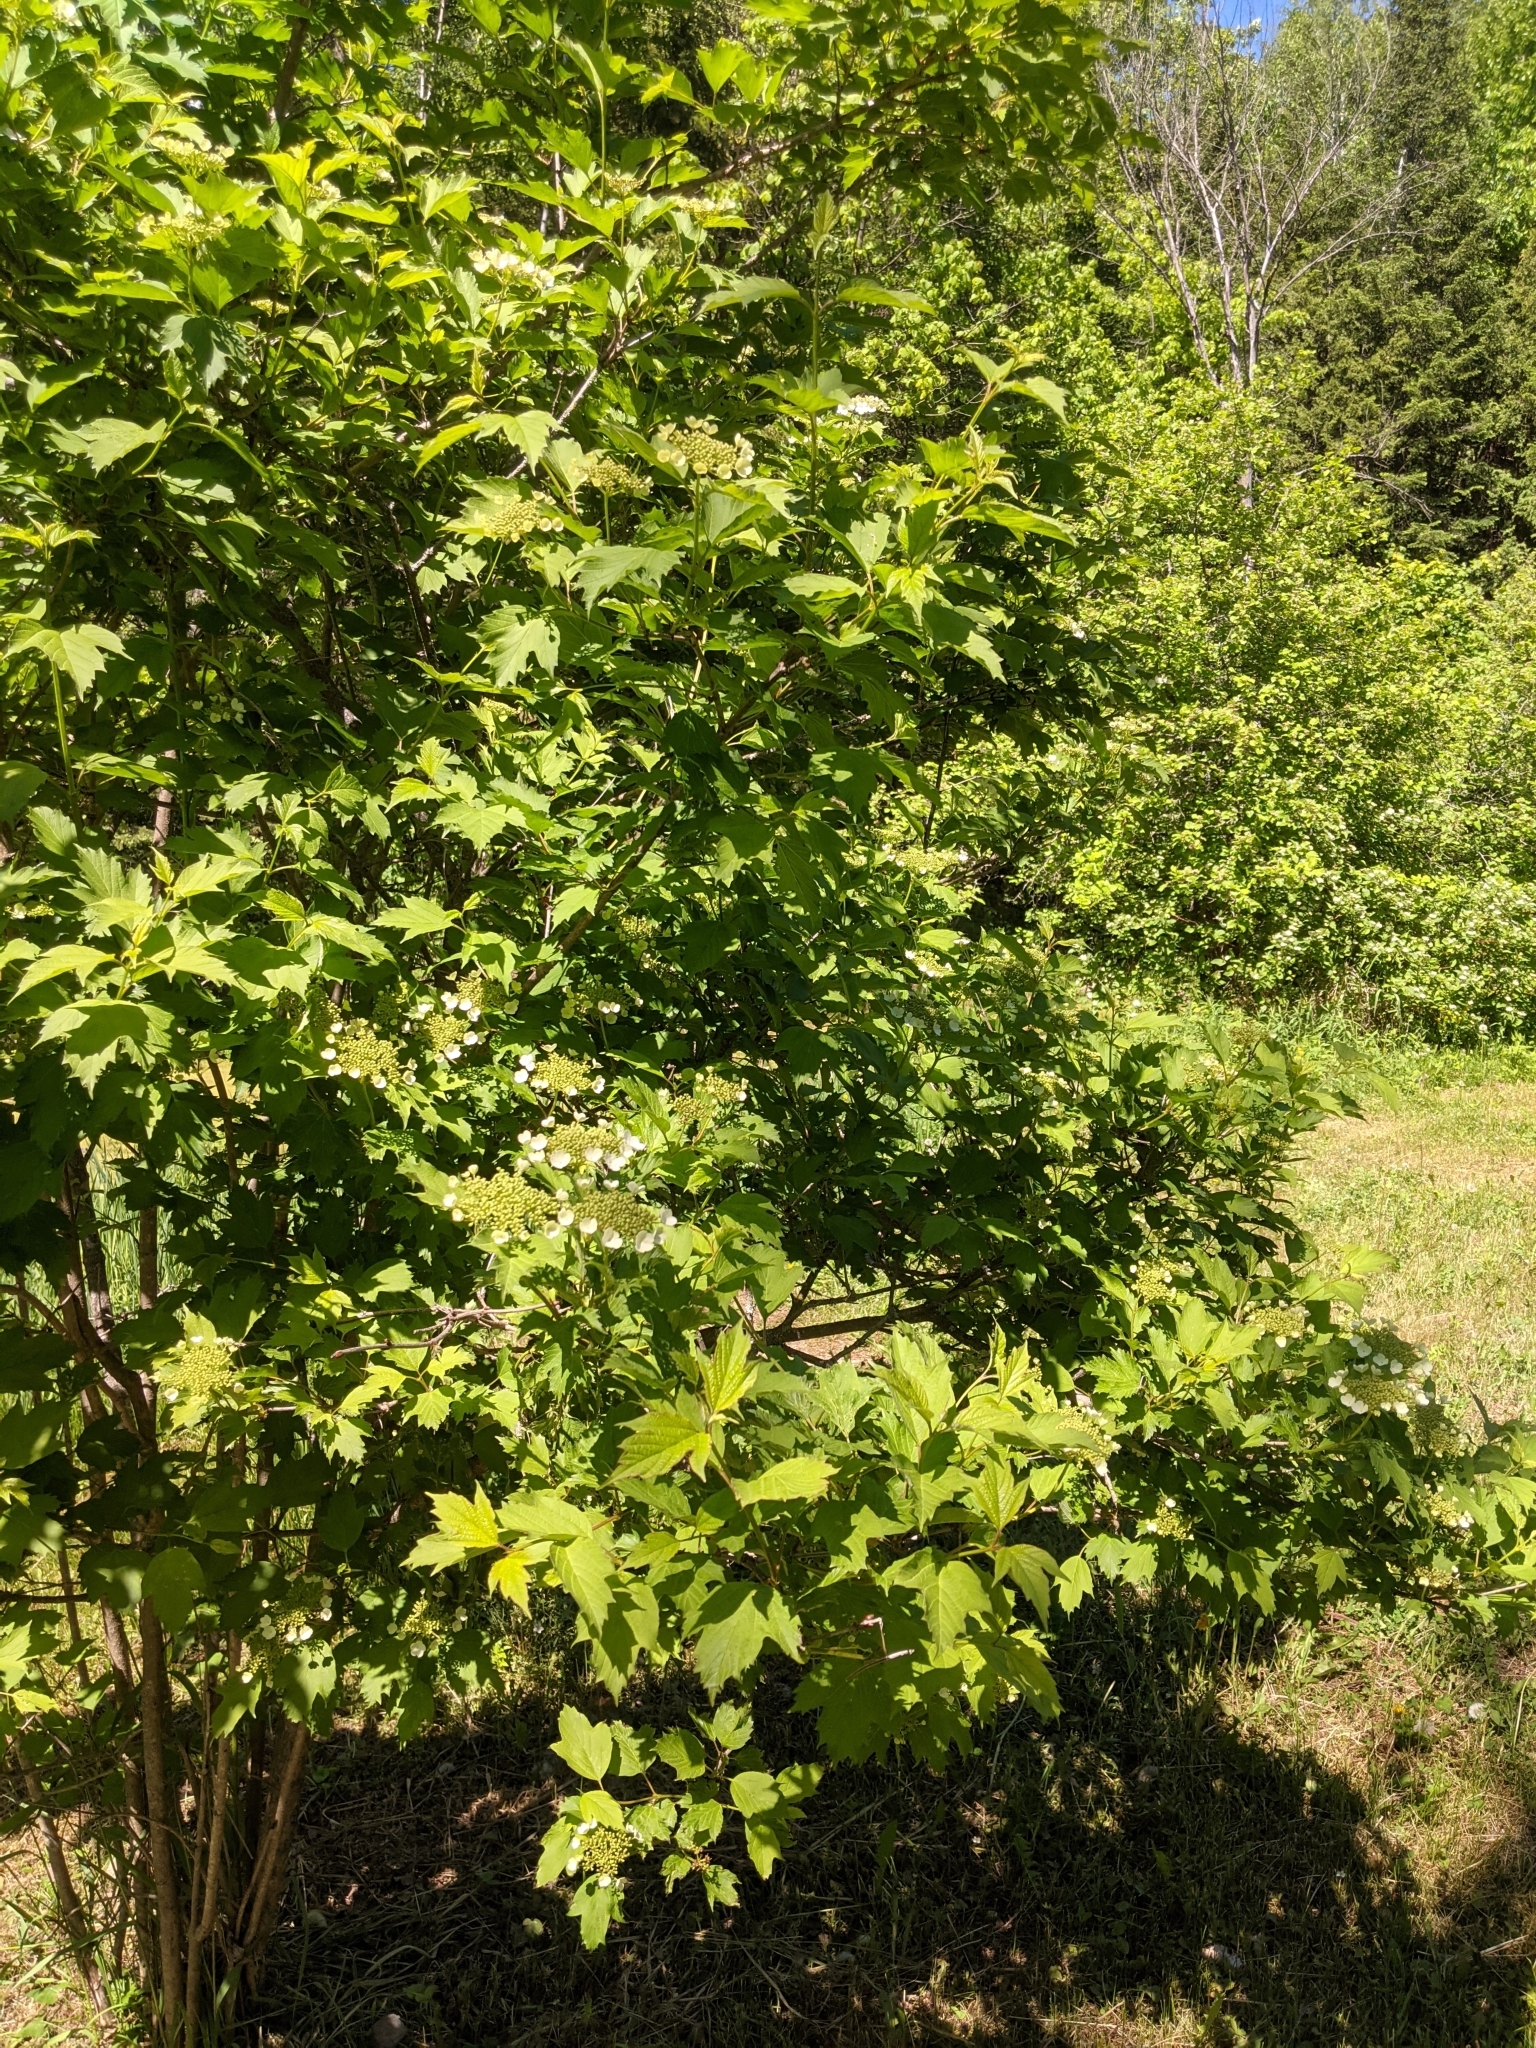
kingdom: Plantae
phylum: Tracheophyta
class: Magnoliopsida
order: Dipsacales
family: Viburnaceae
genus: Viburnum
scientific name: Viburnum opulus
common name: Guelder-rose
